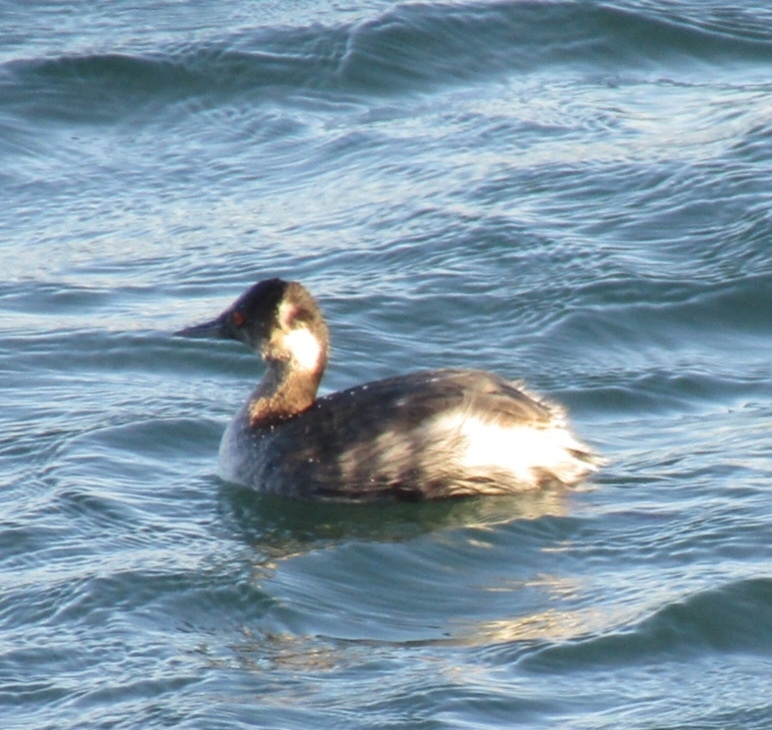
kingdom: Animalia
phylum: Chordata
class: Aves
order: Podicipediformes
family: Podicipedidae
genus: Podiceps
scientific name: Podiceps nigricollis
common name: Black-necked grebe
